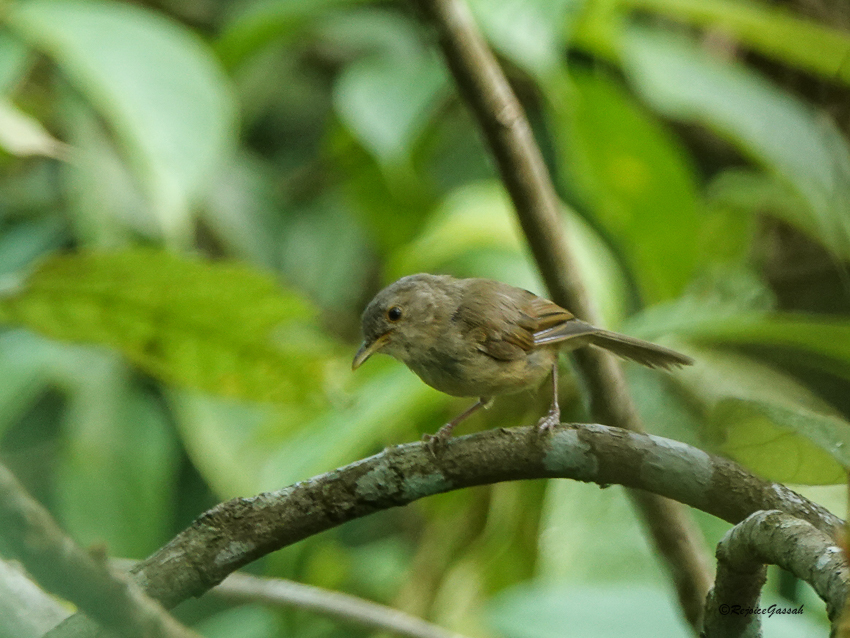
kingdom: Animalia
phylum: Chordata
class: Aves
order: Passeriformes
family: Pellorneidae
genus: Alcippe
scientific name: Alcippe poioicephala
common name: Brown-cheeked fulvetta
